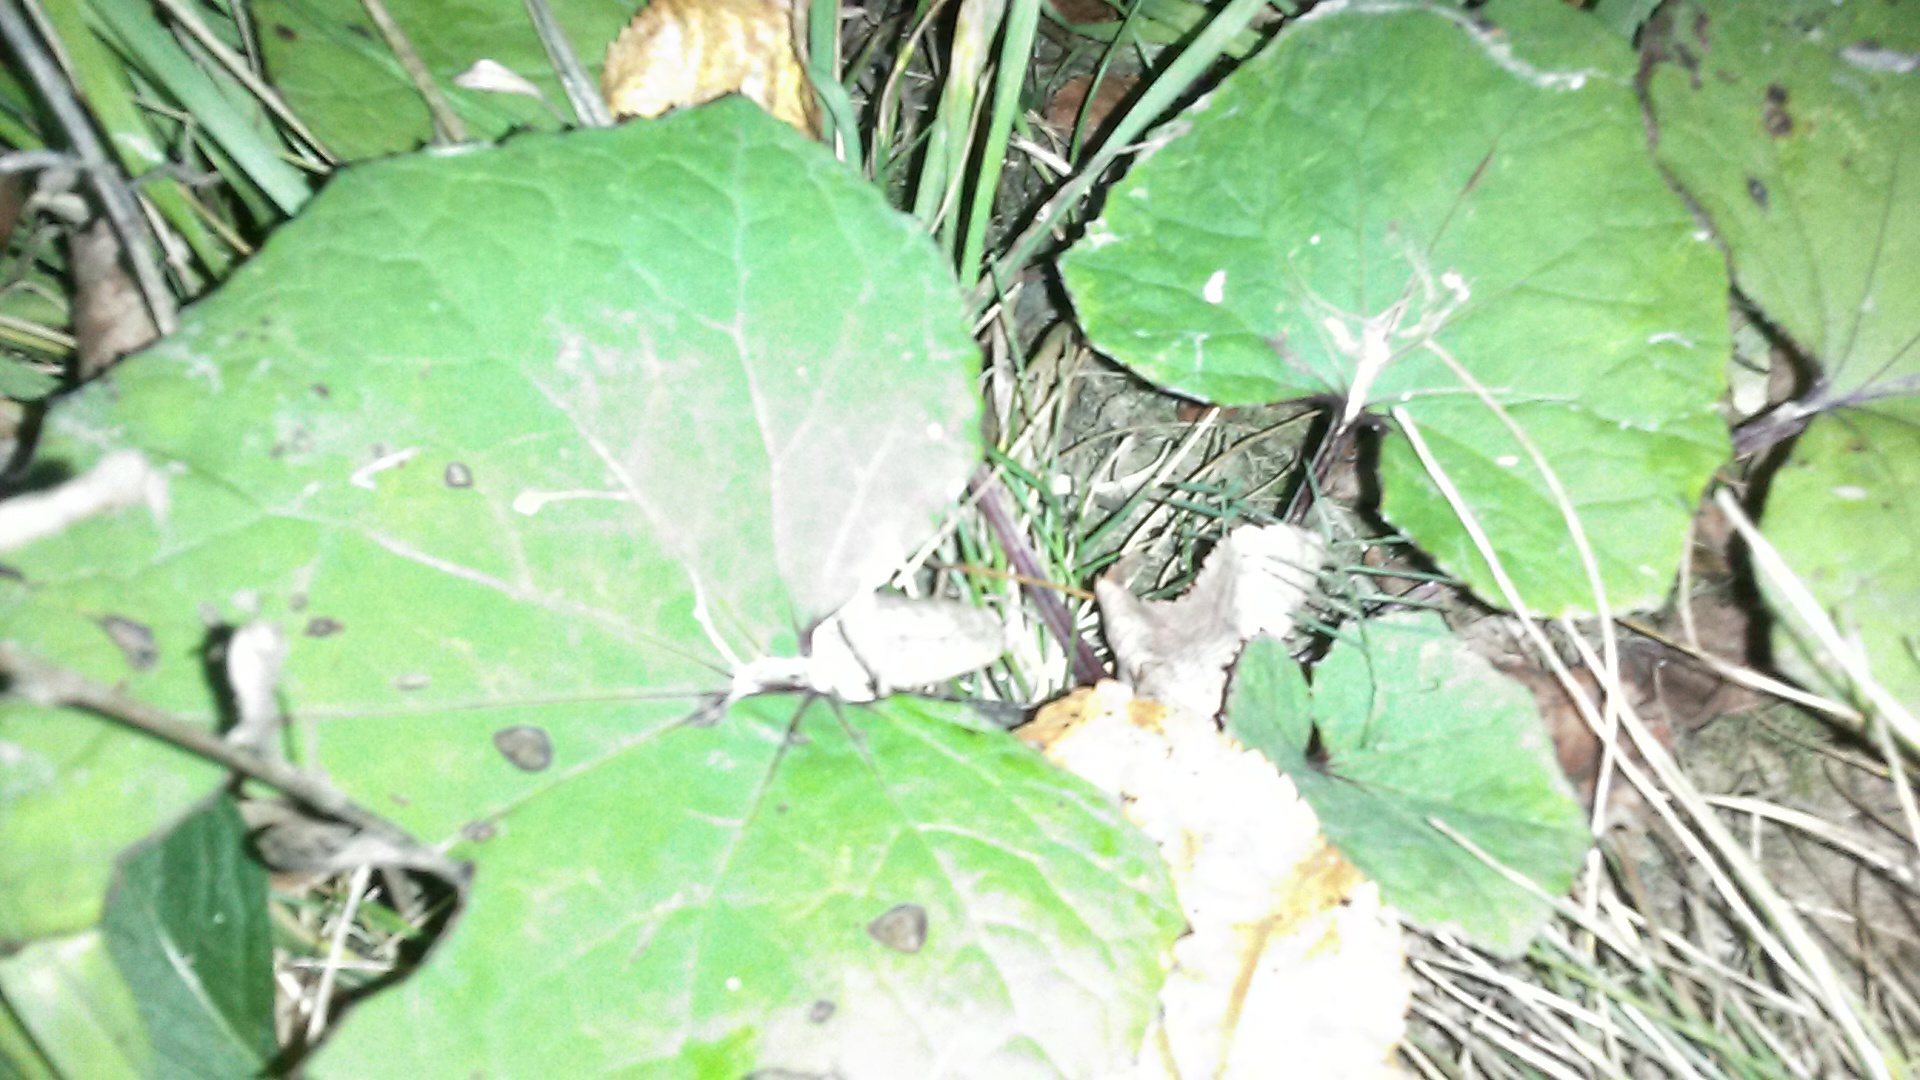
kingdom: Plantae
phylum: Tracheophyta
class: Magnoliopsida
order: Asterales
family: Asteraceae
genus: Tussilago
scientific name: Tussilago farfara
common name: Coltsfoot
